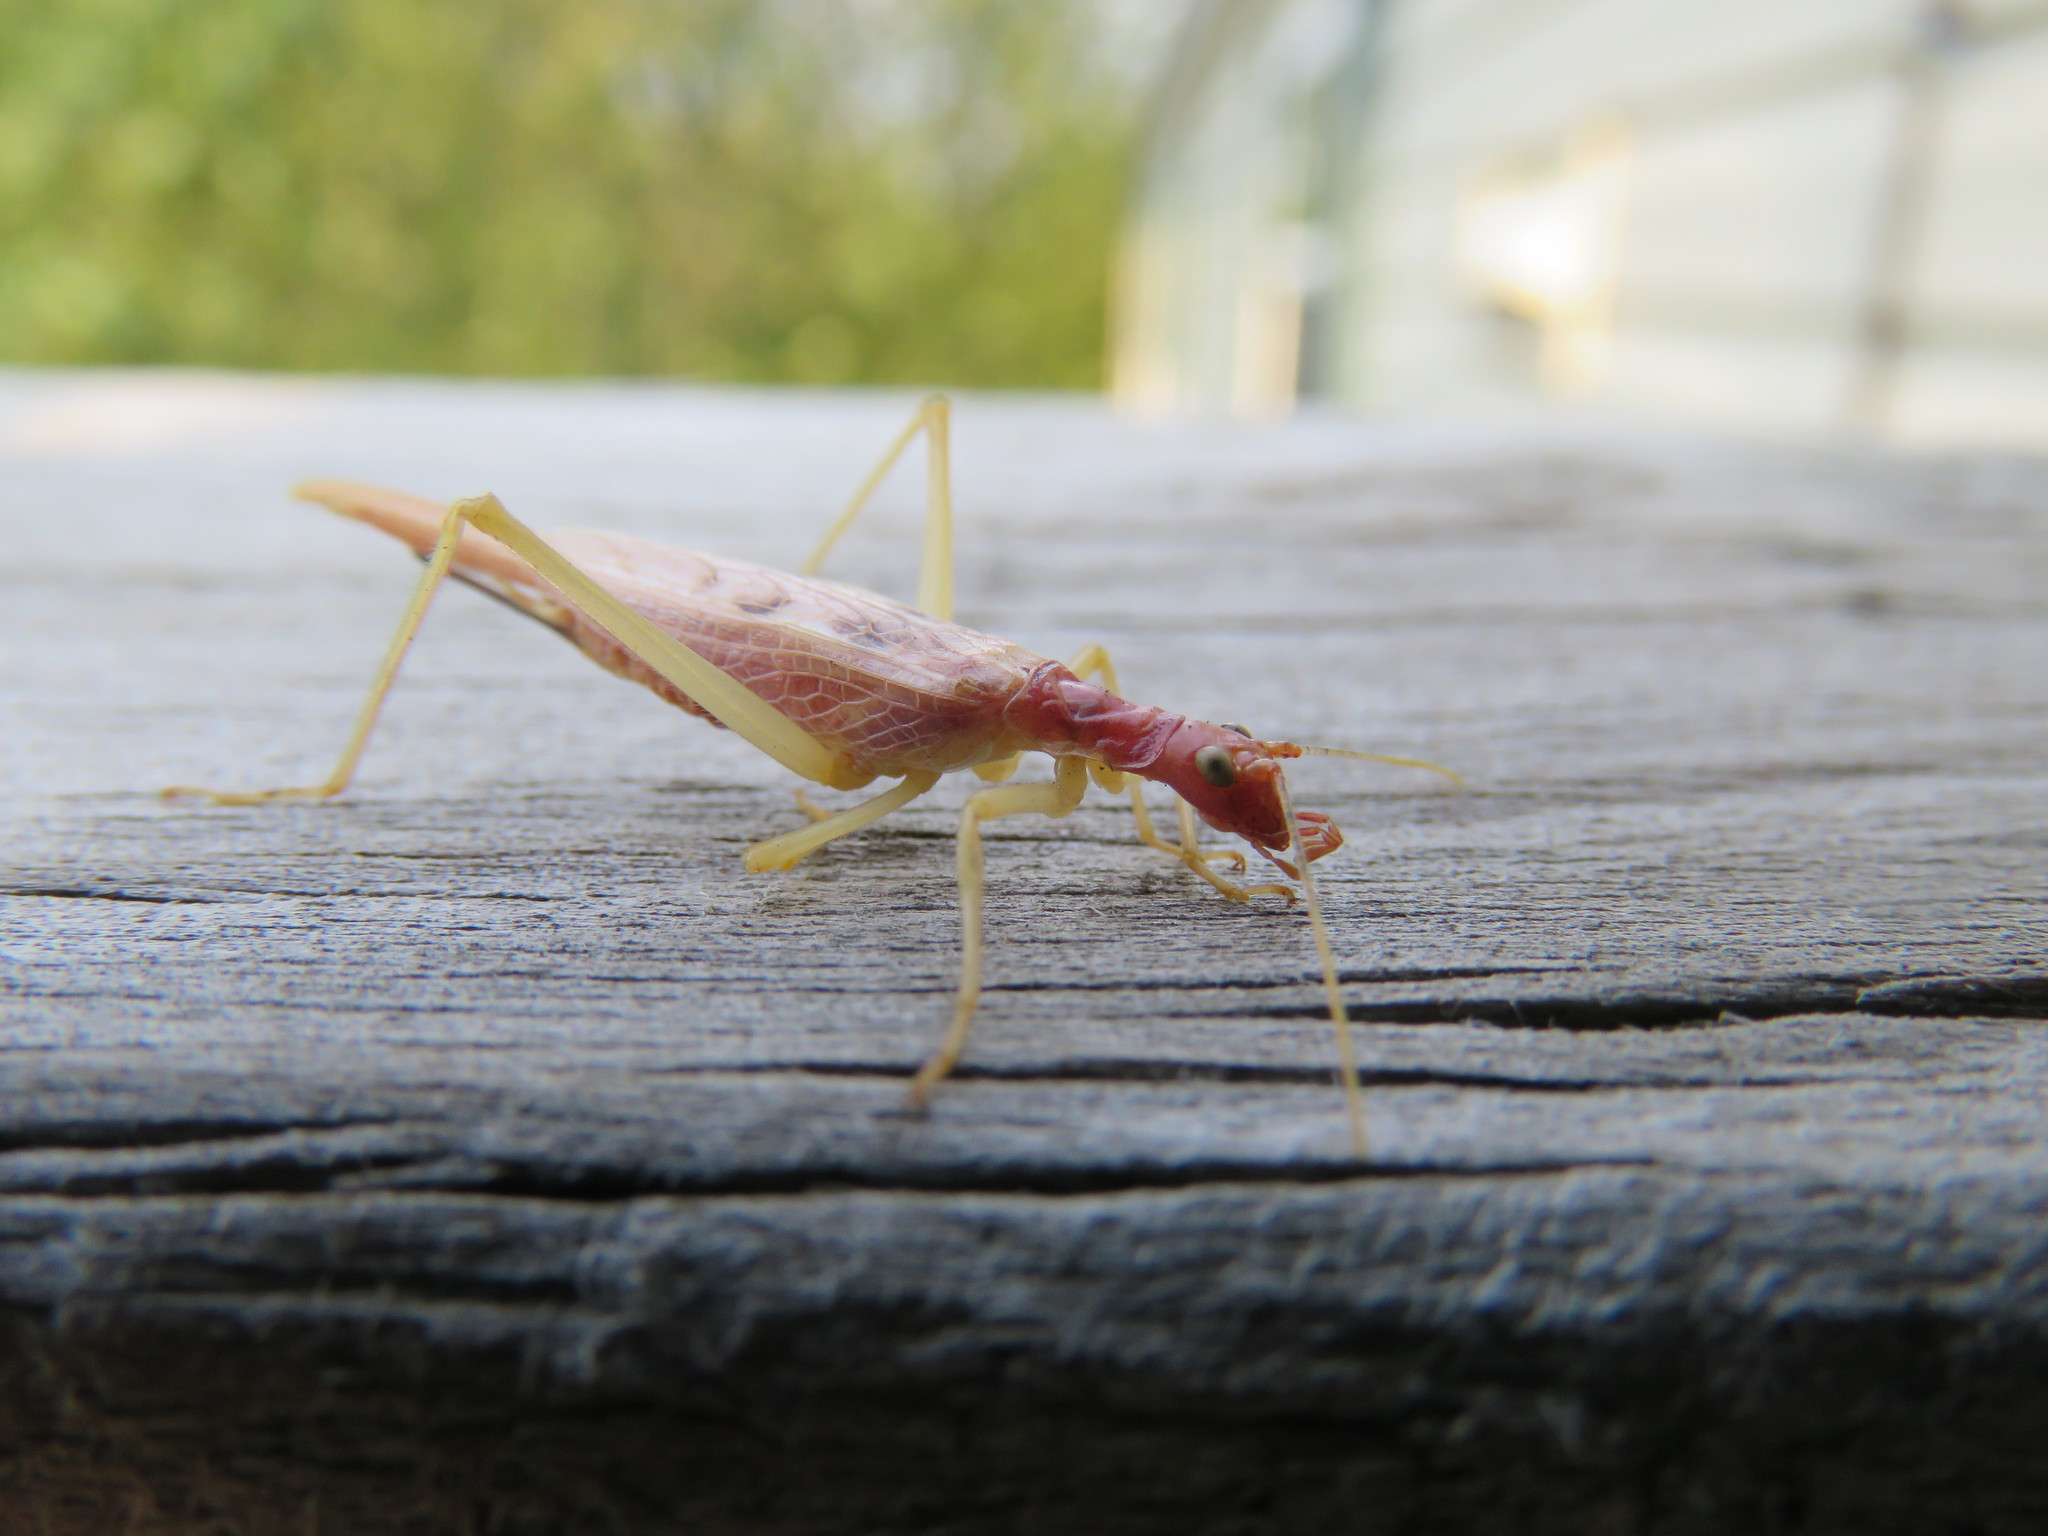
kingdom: Animalia
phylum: Arthropoda
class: Insecta
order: Orthoptera
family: Gryllidae
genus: Neoxabea
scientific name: Neoxabea bipunctata
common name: Two-spotted tree cricket
